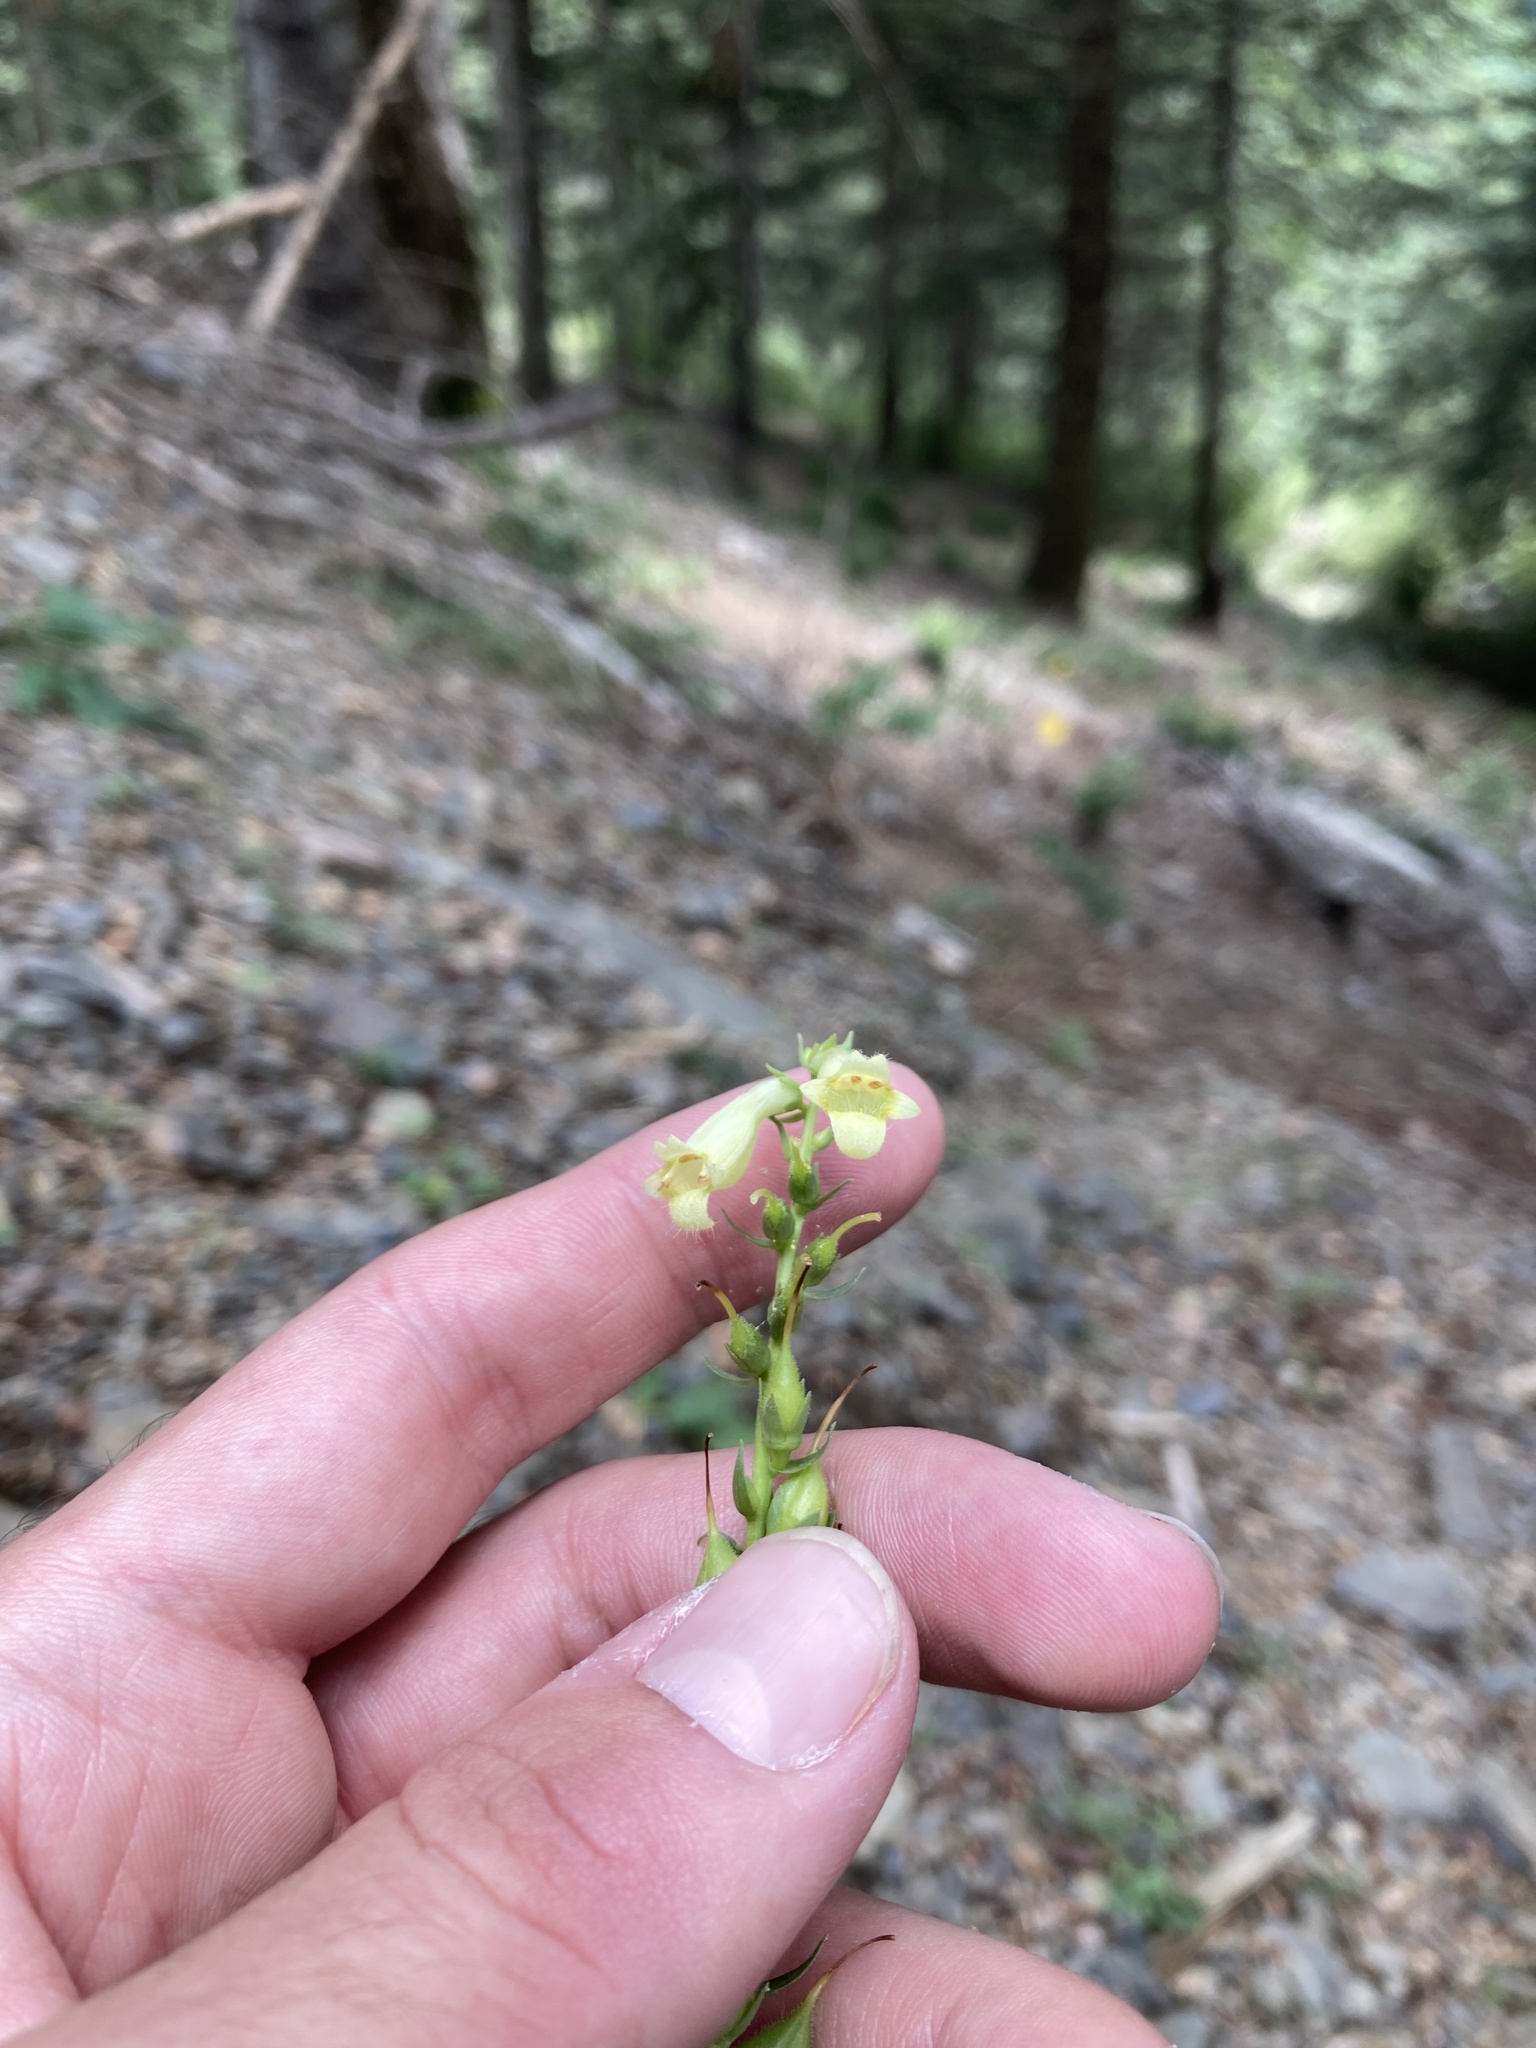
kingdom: Plantae
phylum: Tracheophyta
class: Magnoliopsida
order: Lamiales
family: Plantaginaceae
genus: Digitalis
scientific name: Digitalis lutea
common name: Straw foxglove
